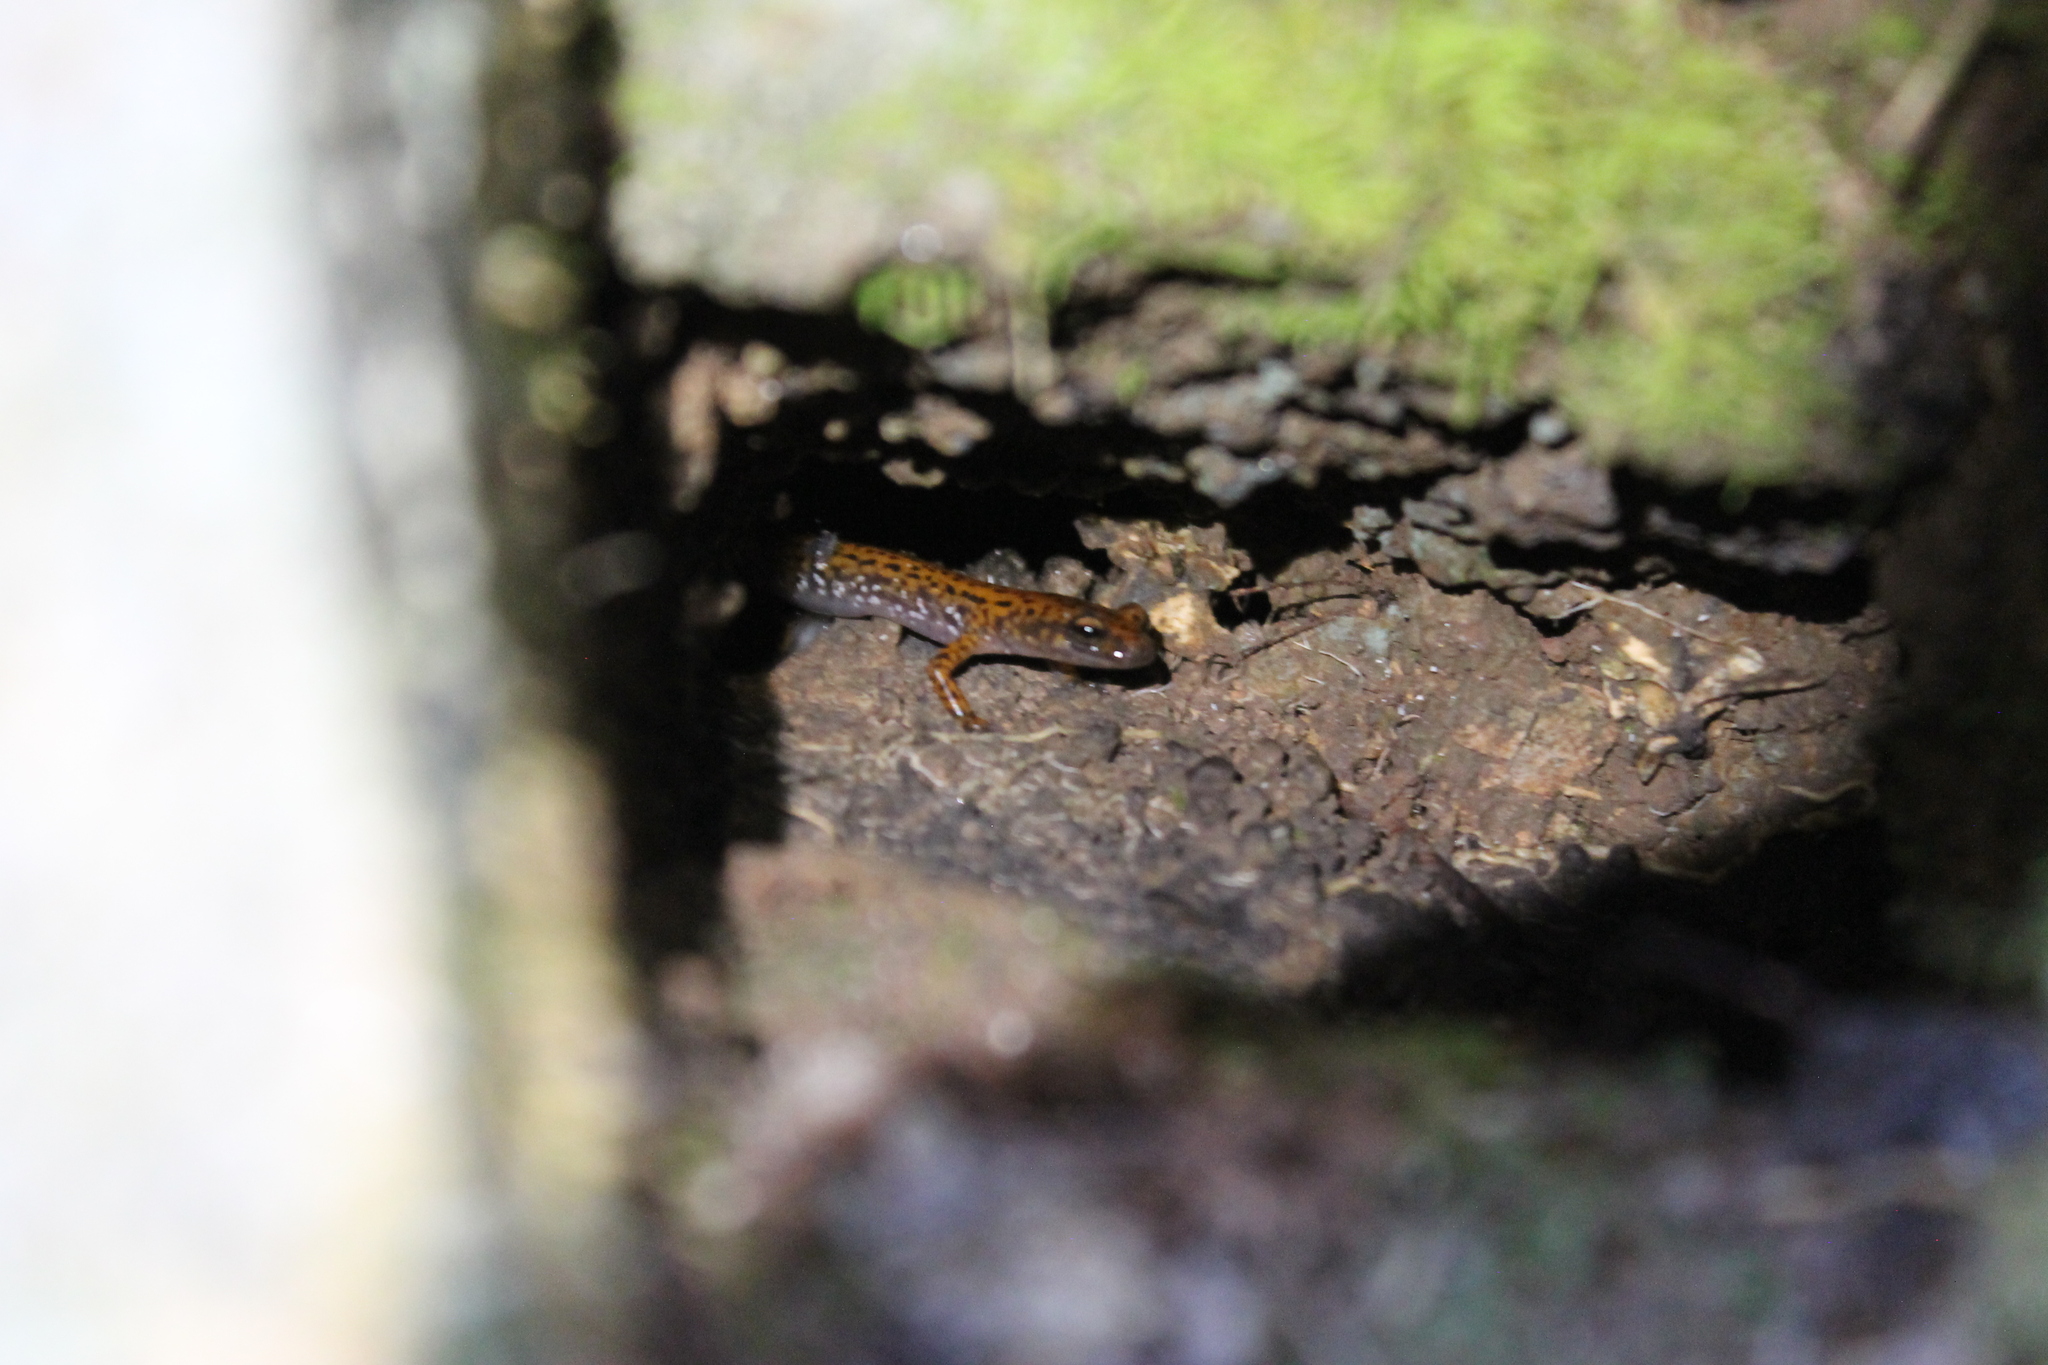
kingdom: Animalia
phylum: Chordata
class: Amphibia
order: Caudata
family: Plethodontidae
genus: Eurycea
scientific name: Eurycea lucifuga
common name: Cave salamander
